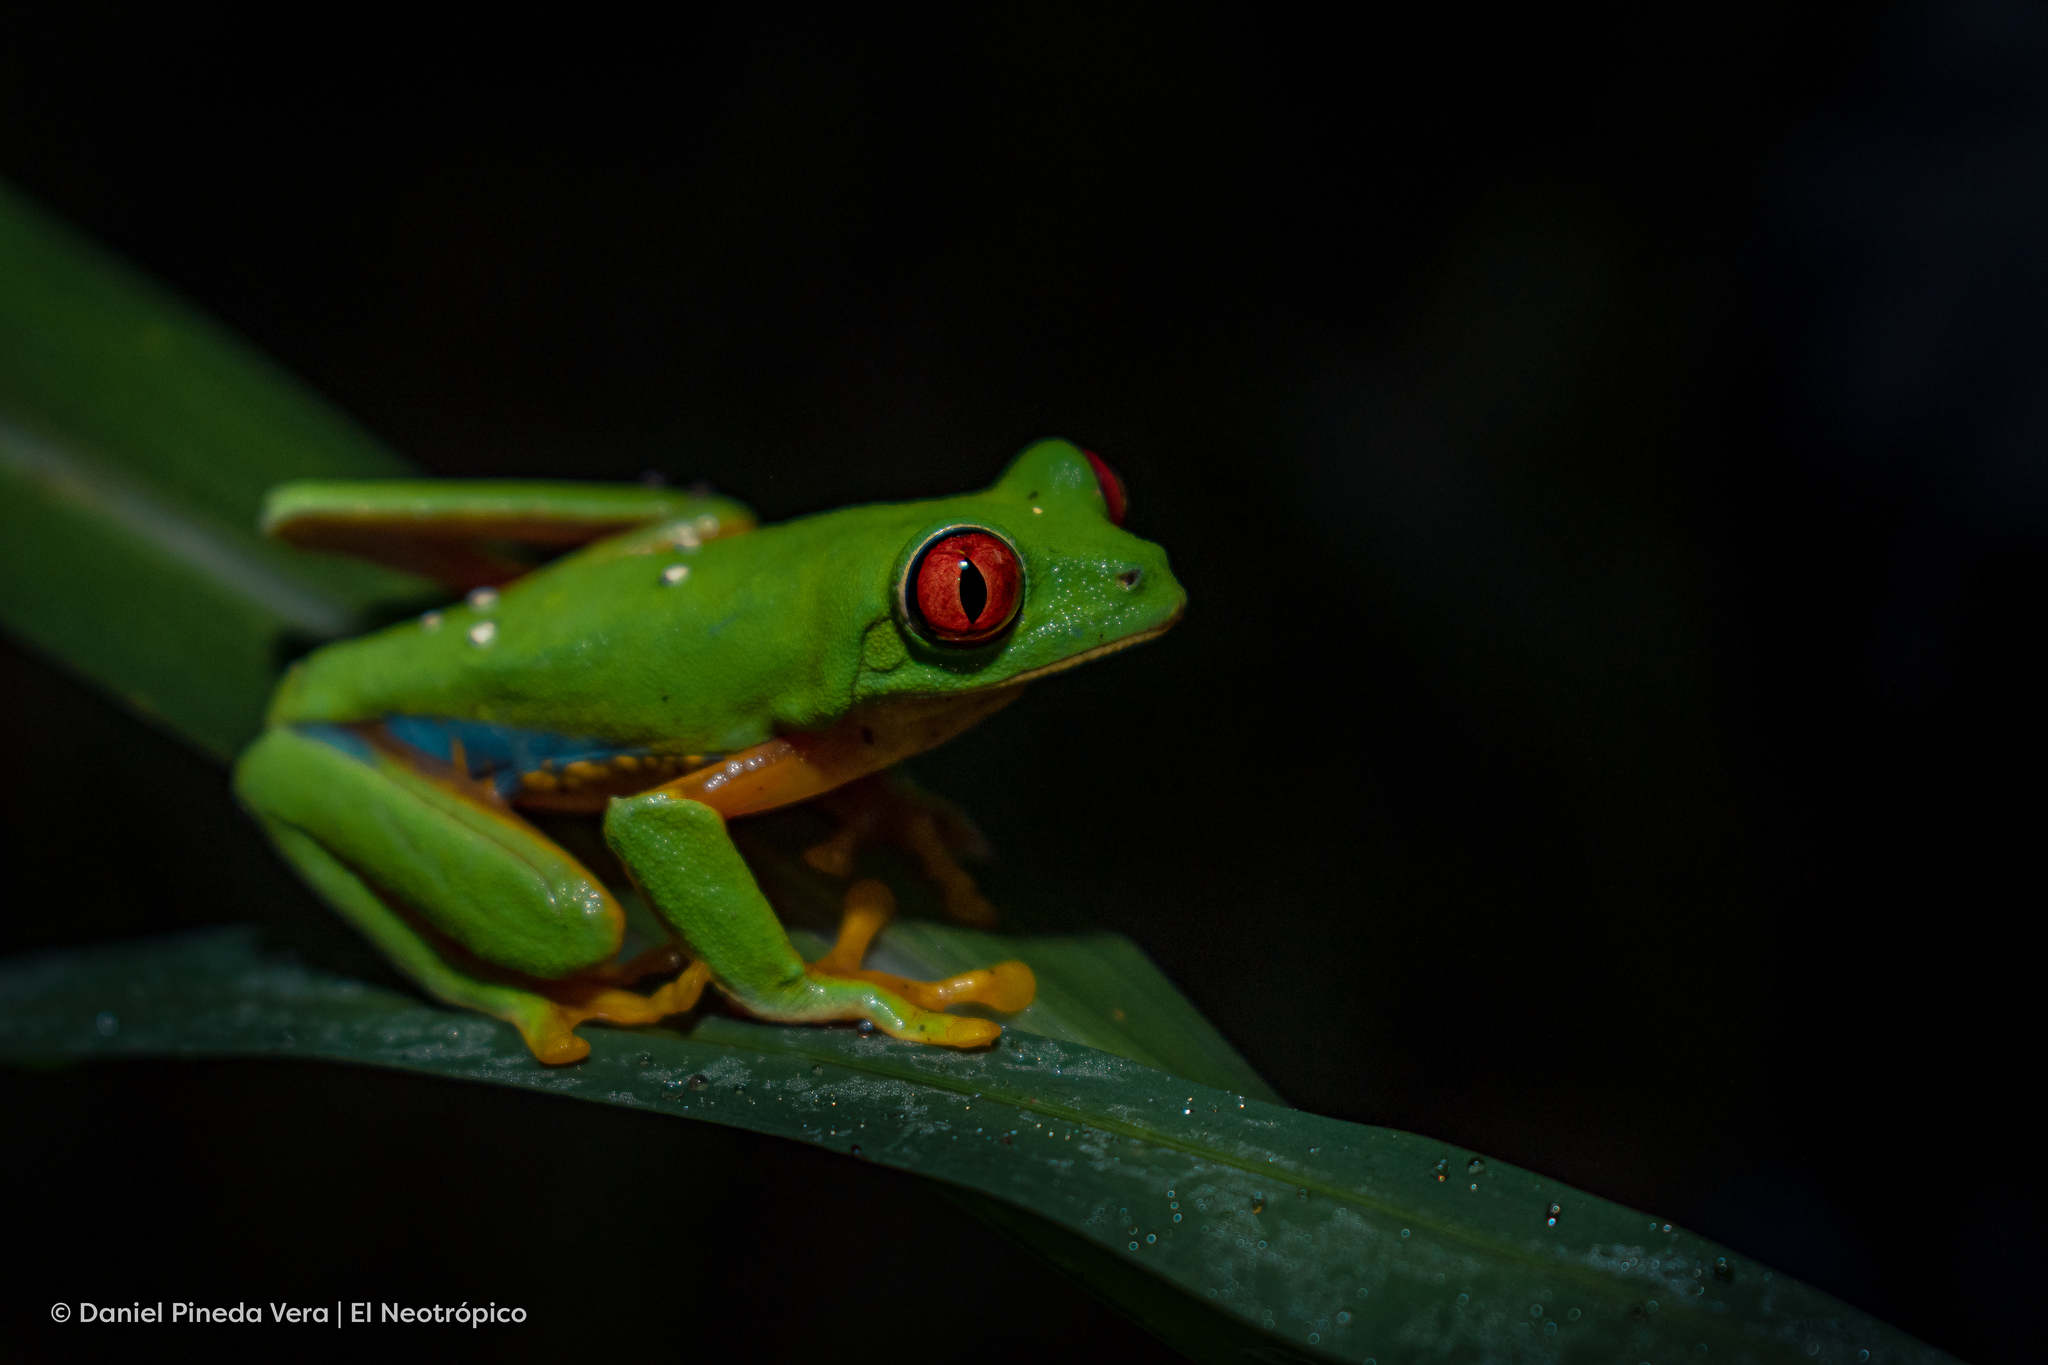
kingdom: Animalia
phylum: Chordata
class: Amphibia
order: Anura
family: Phyllomedusidae
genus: Agalychnis
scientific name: Agalychnis
